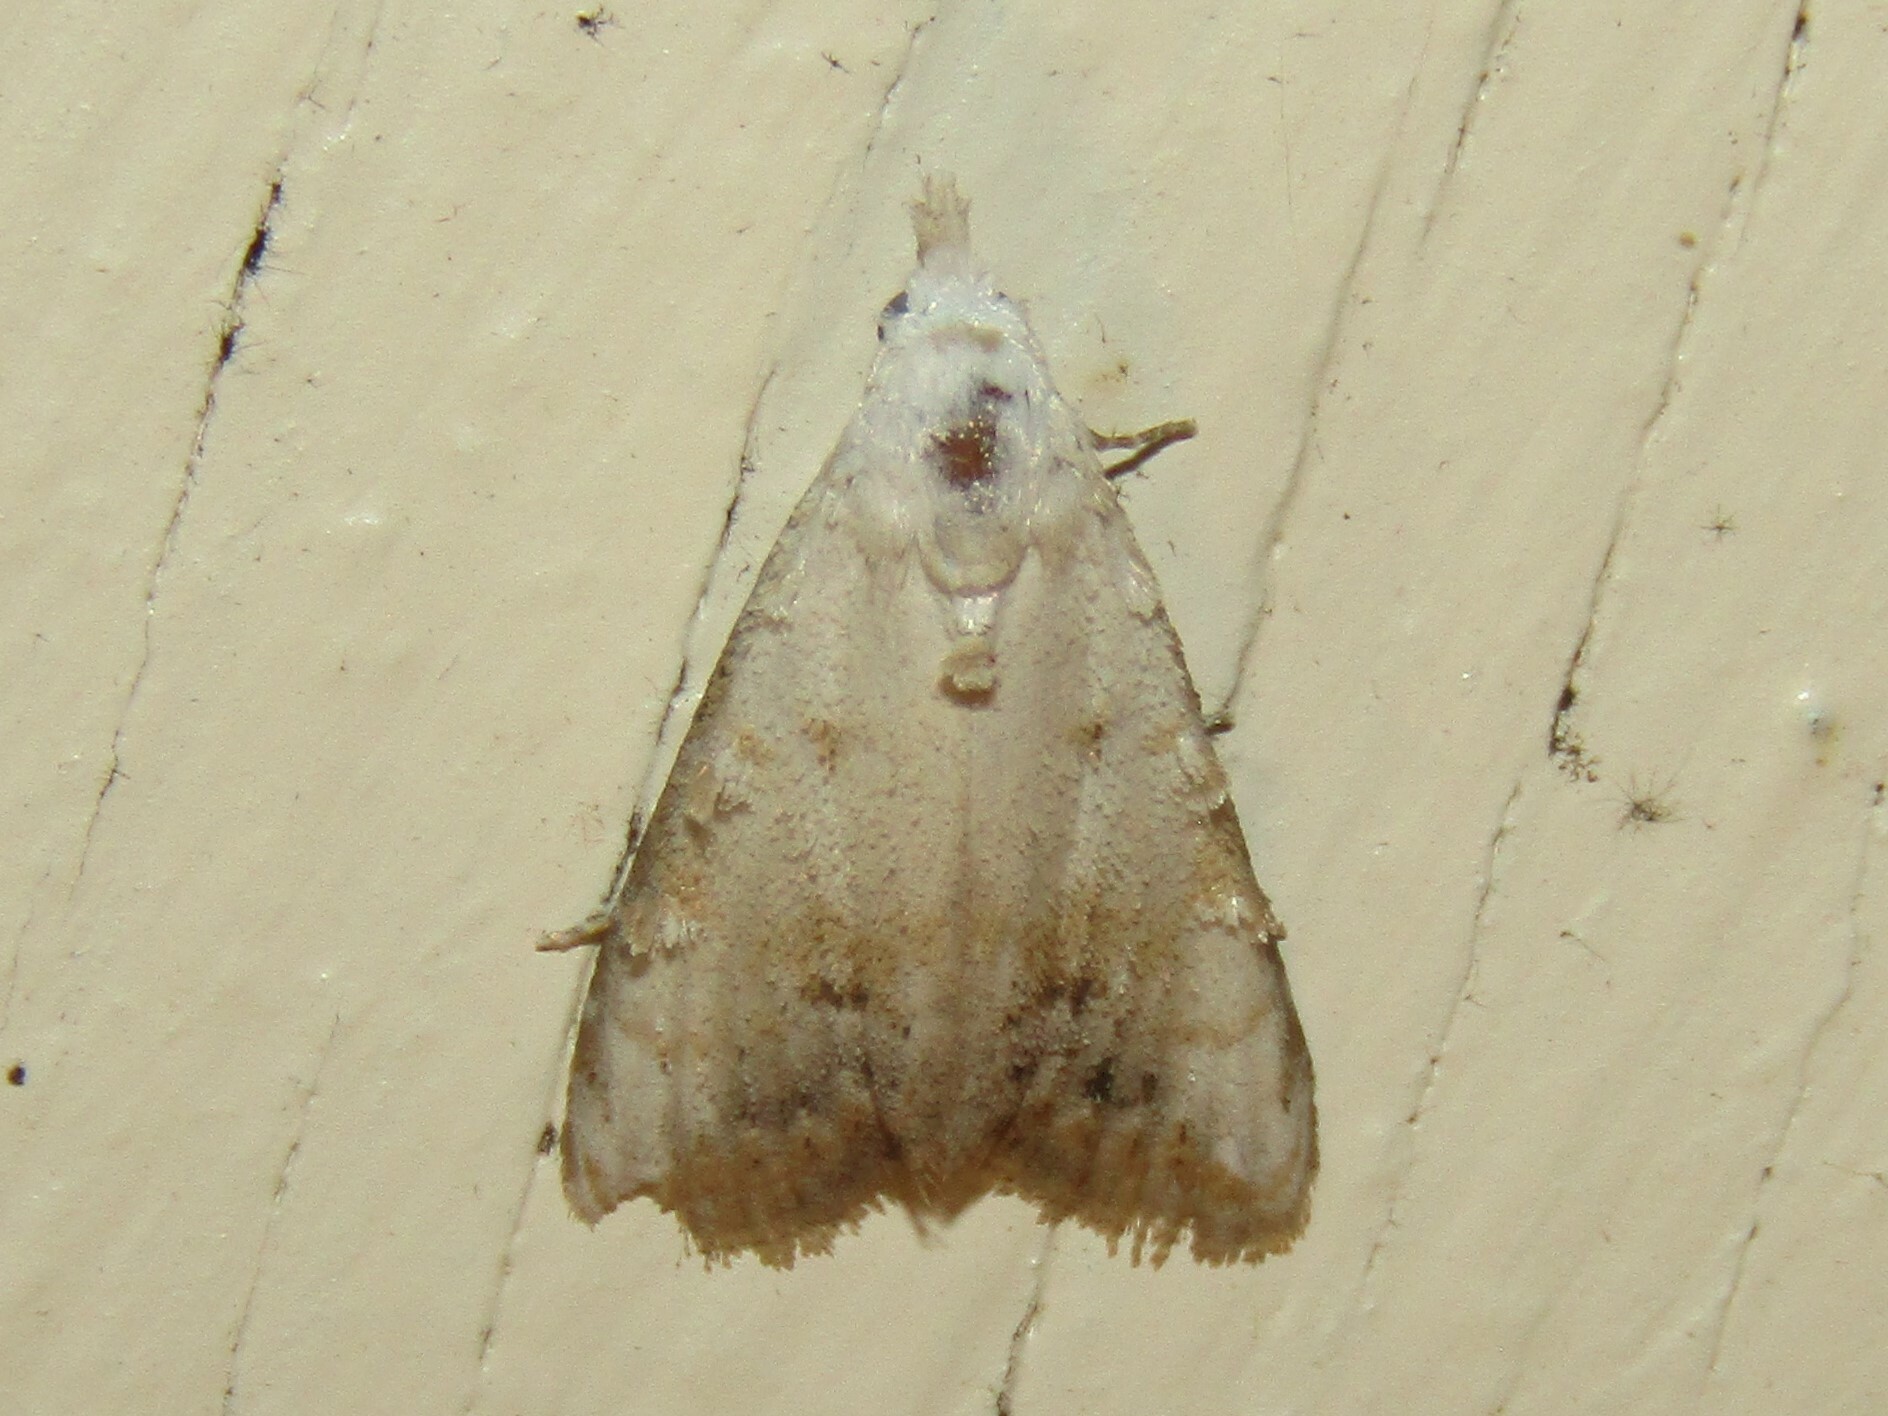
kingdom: Animalia
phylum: Arthropoda
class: Insecta
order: Lepidoptera
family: Nolidae
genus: Nola
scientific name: Nola cereella
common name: Sorghum webworm moth
